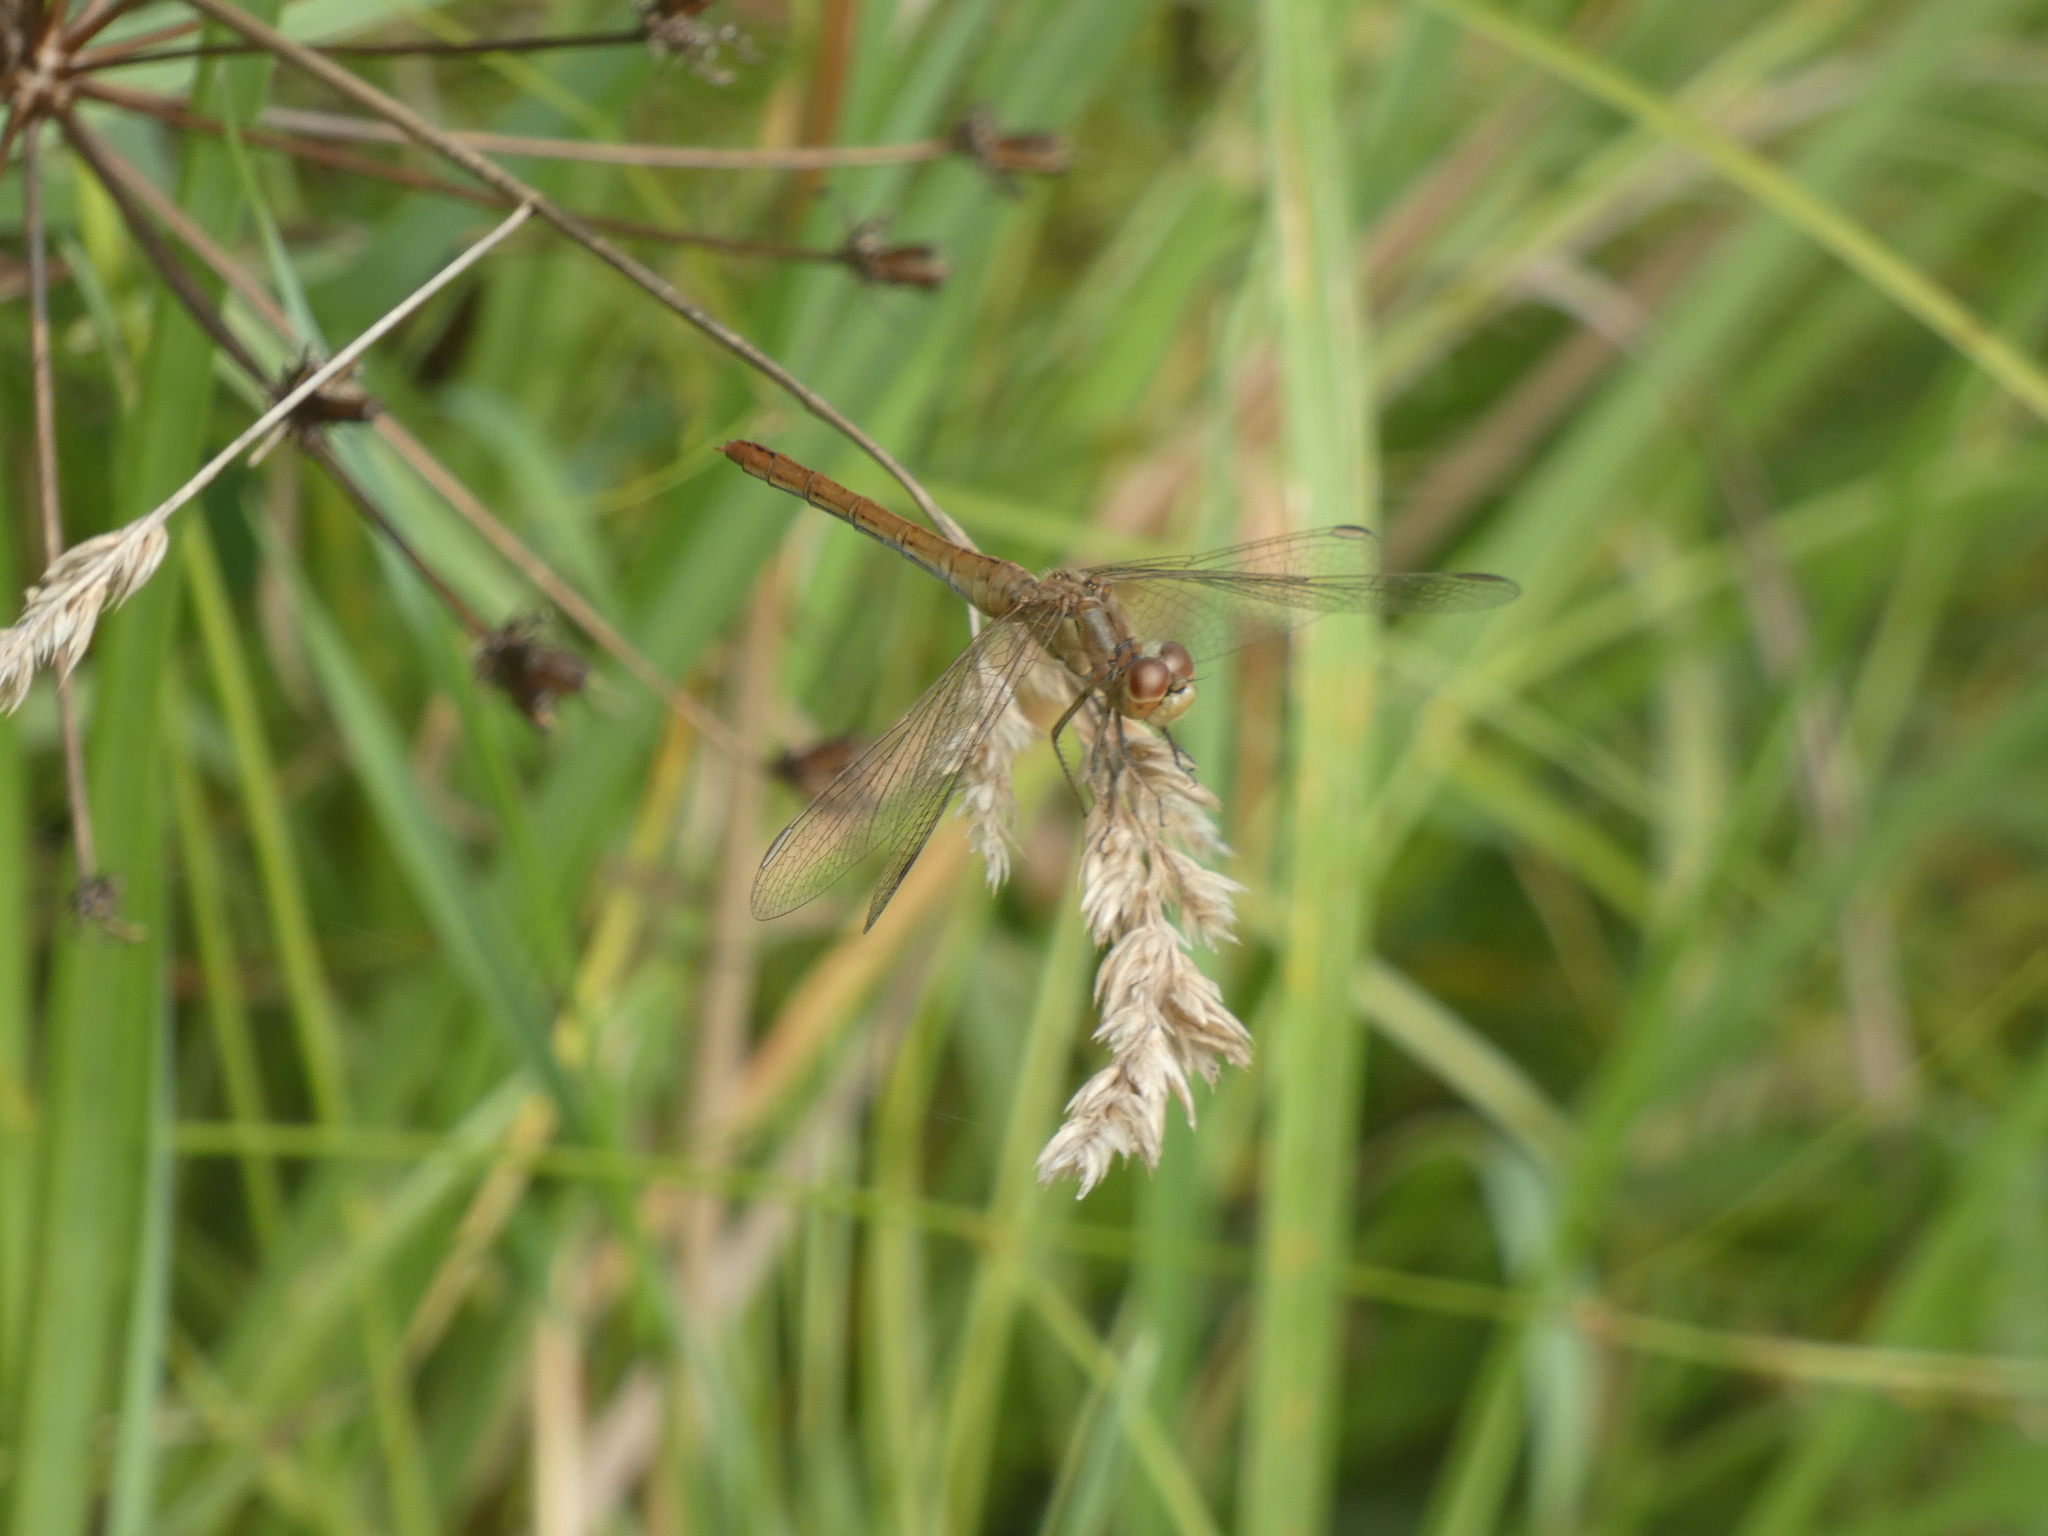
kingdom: Animalia
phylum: Arthropoda
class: Insecta
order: Odonata
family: Libellulidae
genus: Sympetrum
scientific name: Sympetrum meridionale
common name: Southern darter
